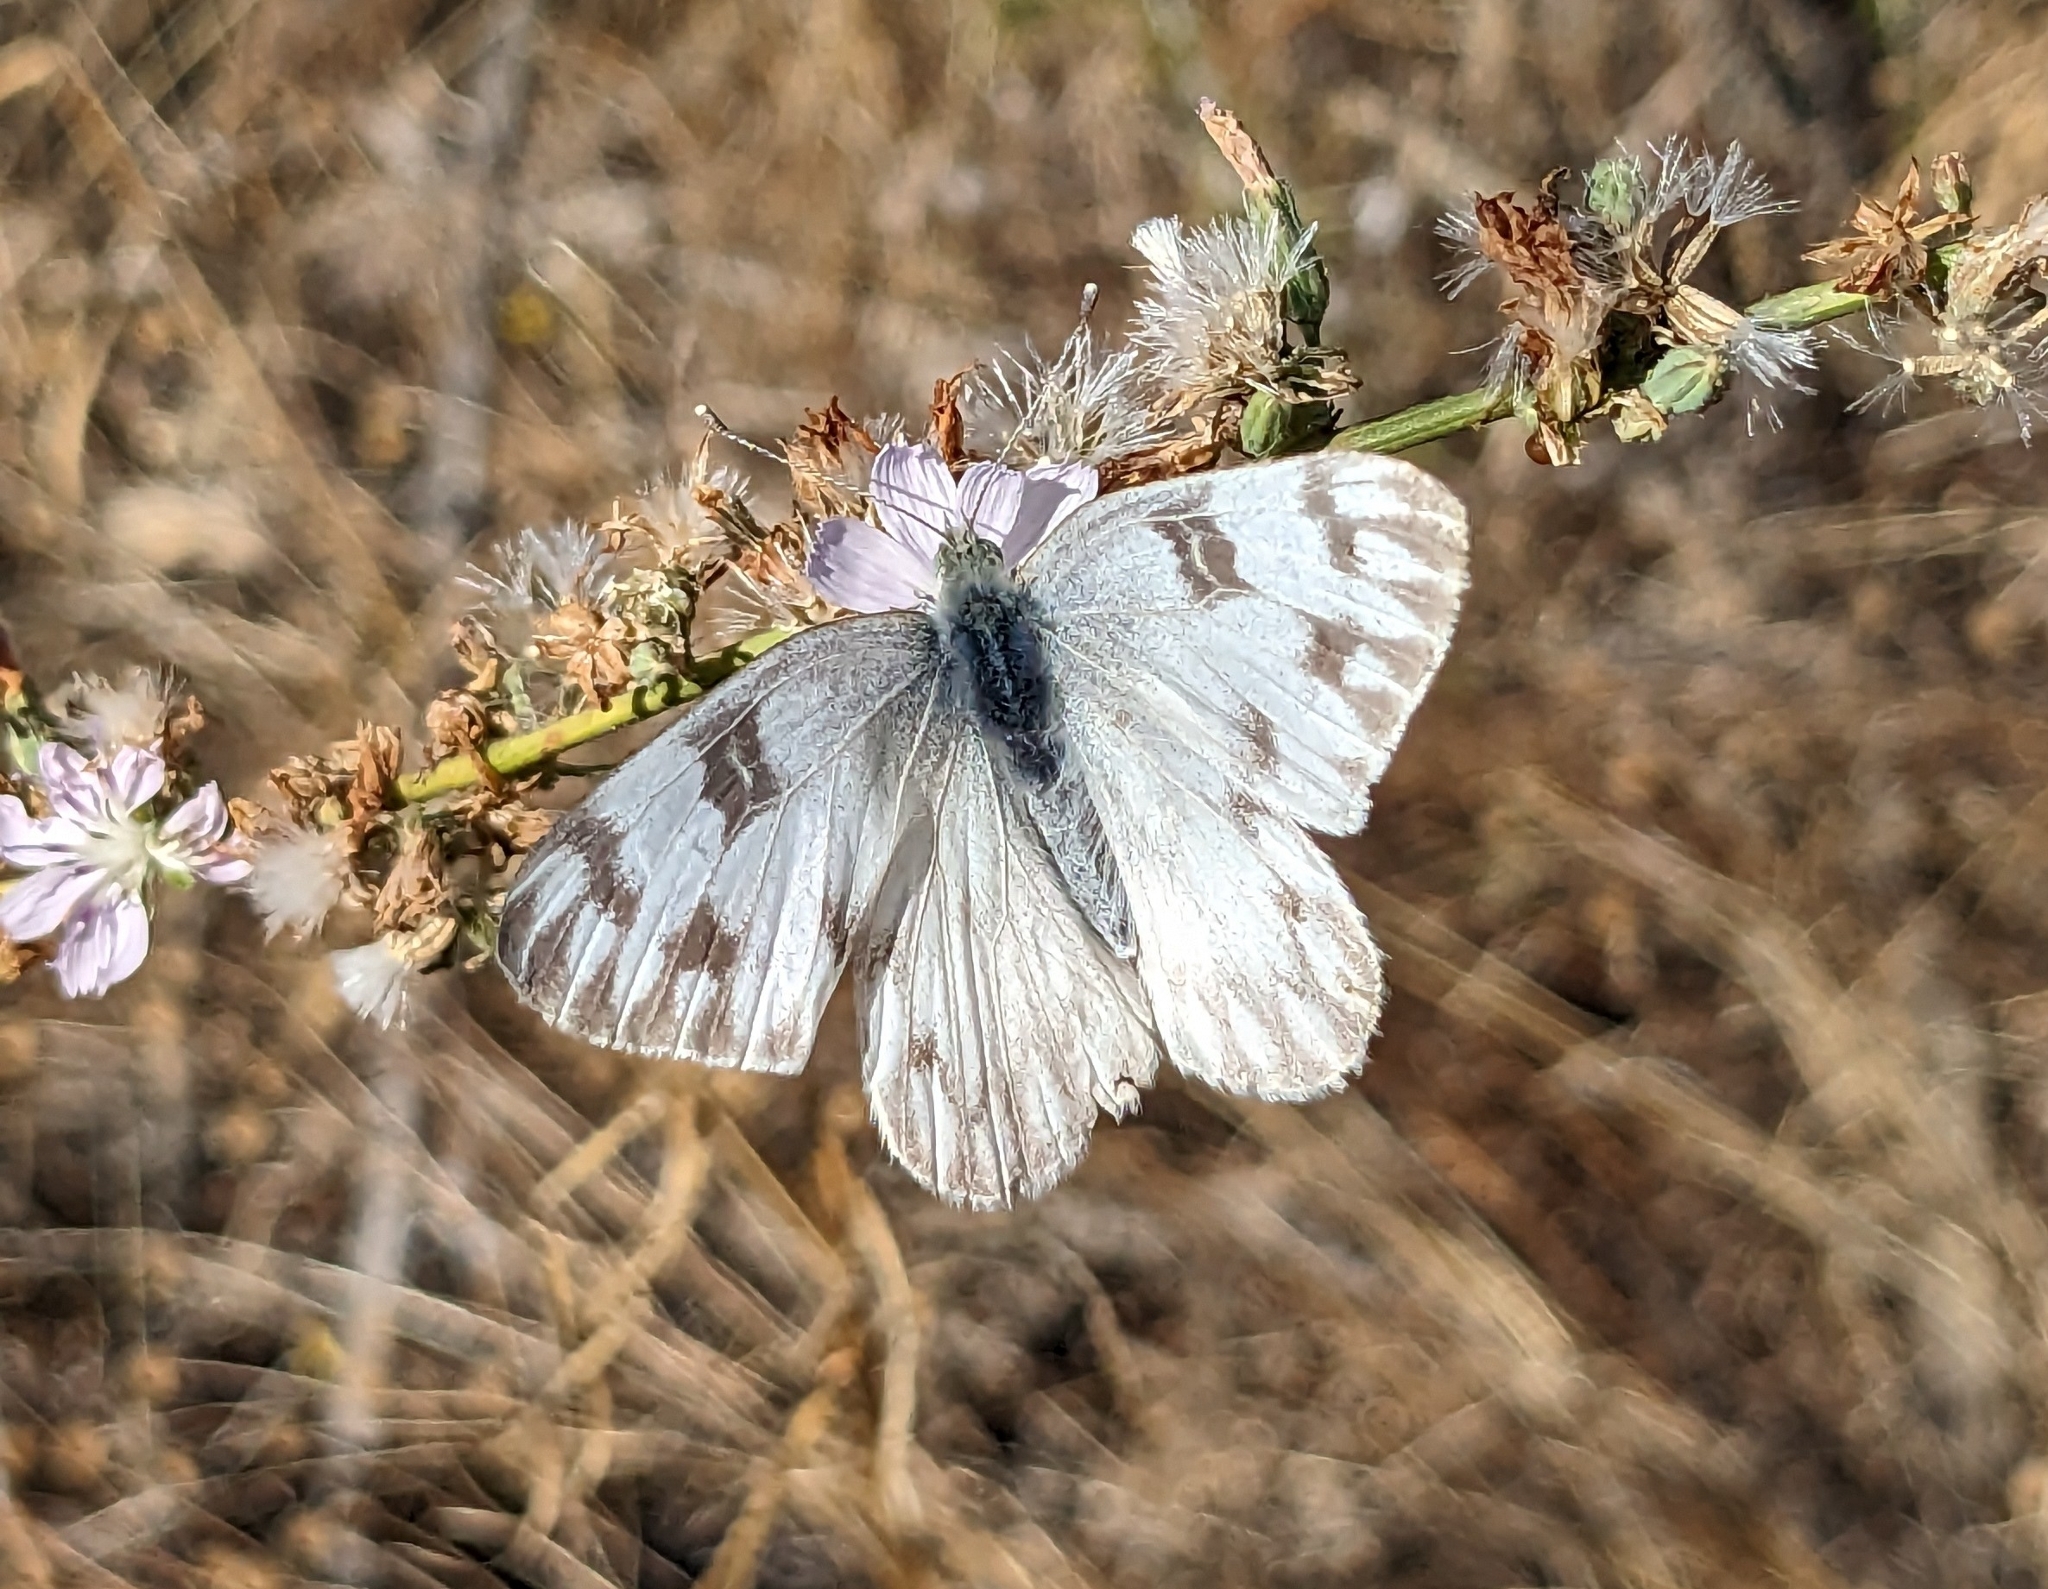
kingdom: Animalia
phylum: Arthropoda
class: Insecta
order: Lepidoptera
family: Pieridae
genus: Pontia
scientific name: Pontia protodice
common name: Checkered white
